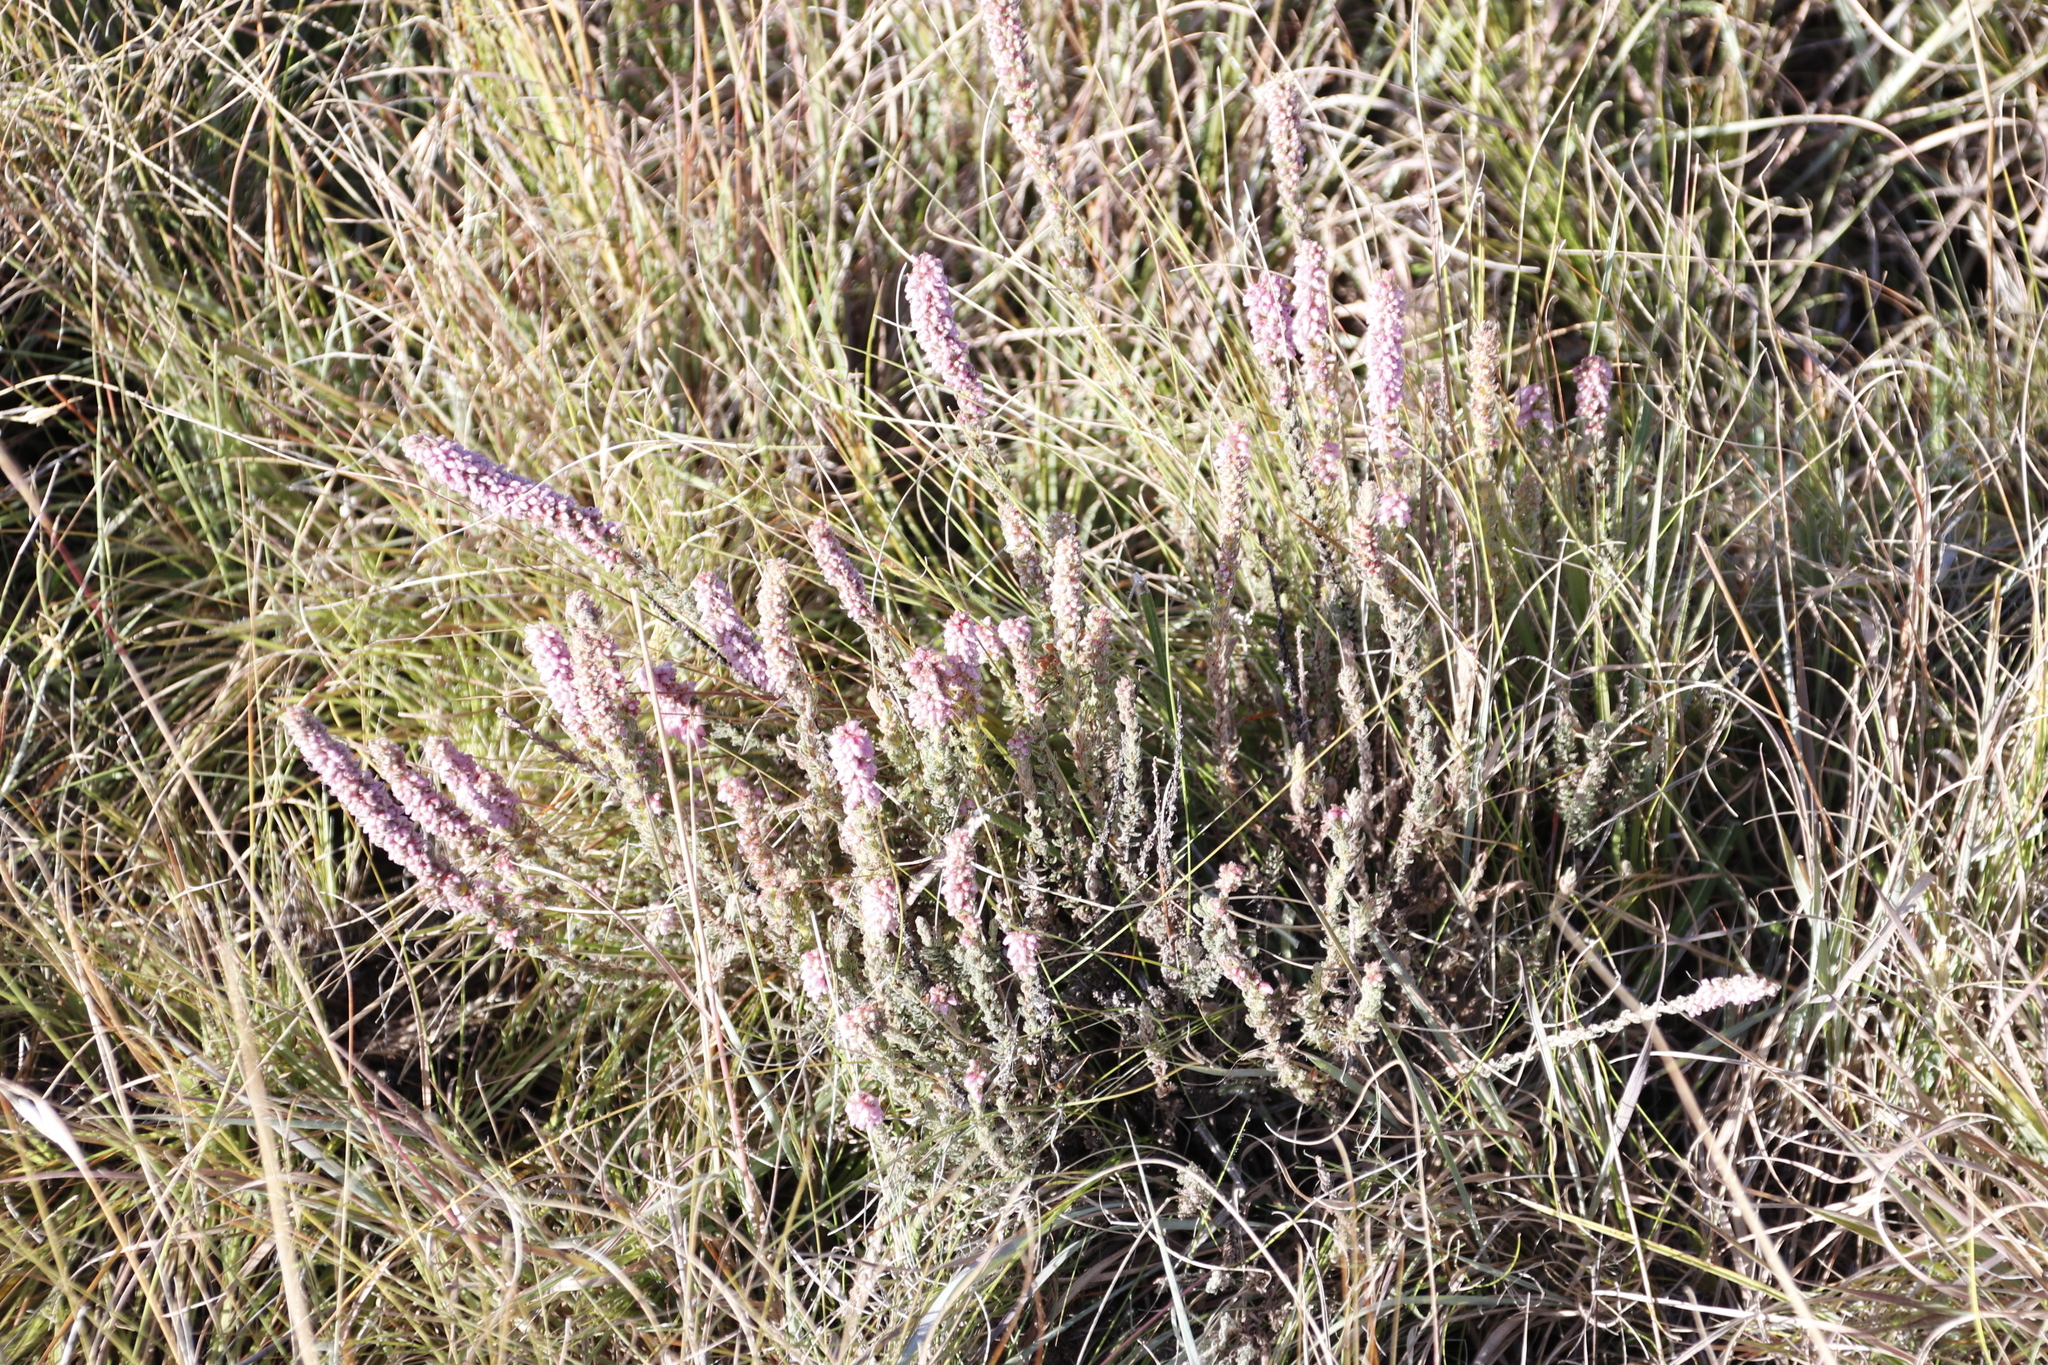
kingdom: Plantae
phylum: Tracheophyta
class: Magnoliopsida
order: Ericales
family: Ericaceae
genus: Erica
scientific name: Erica alopecurus
